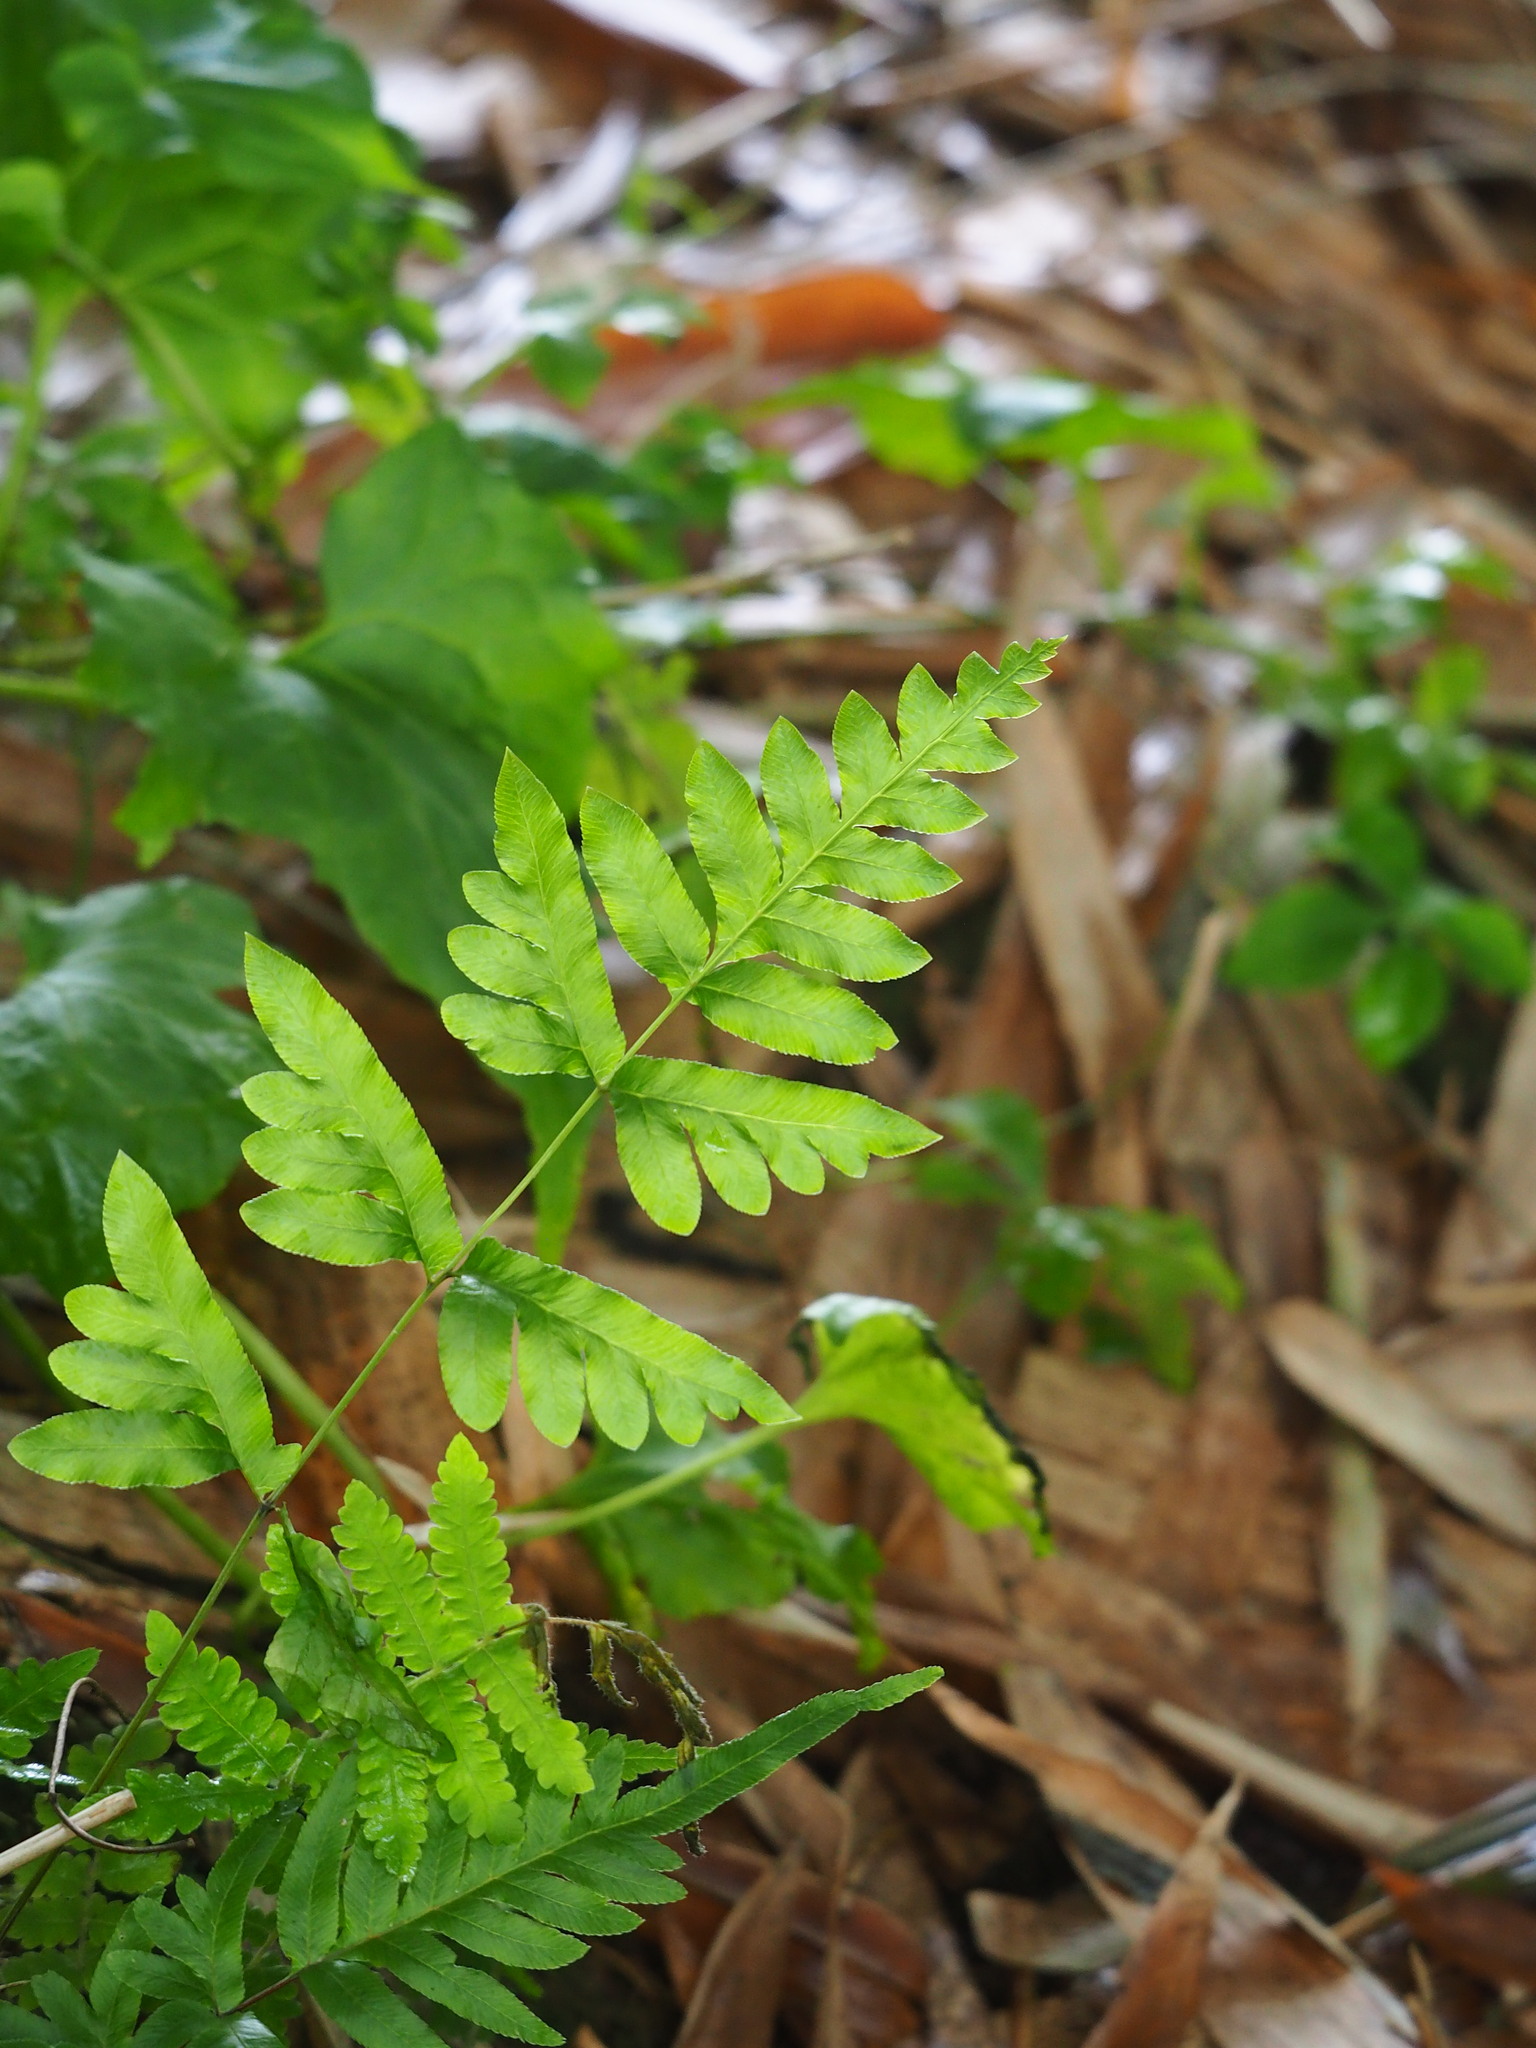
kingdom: Plantae
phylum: Tracheophyta
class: Polypodiopsida
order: Polypodiales
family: Pteridaceae
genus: Pteris
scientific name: Pteris semipinnata
